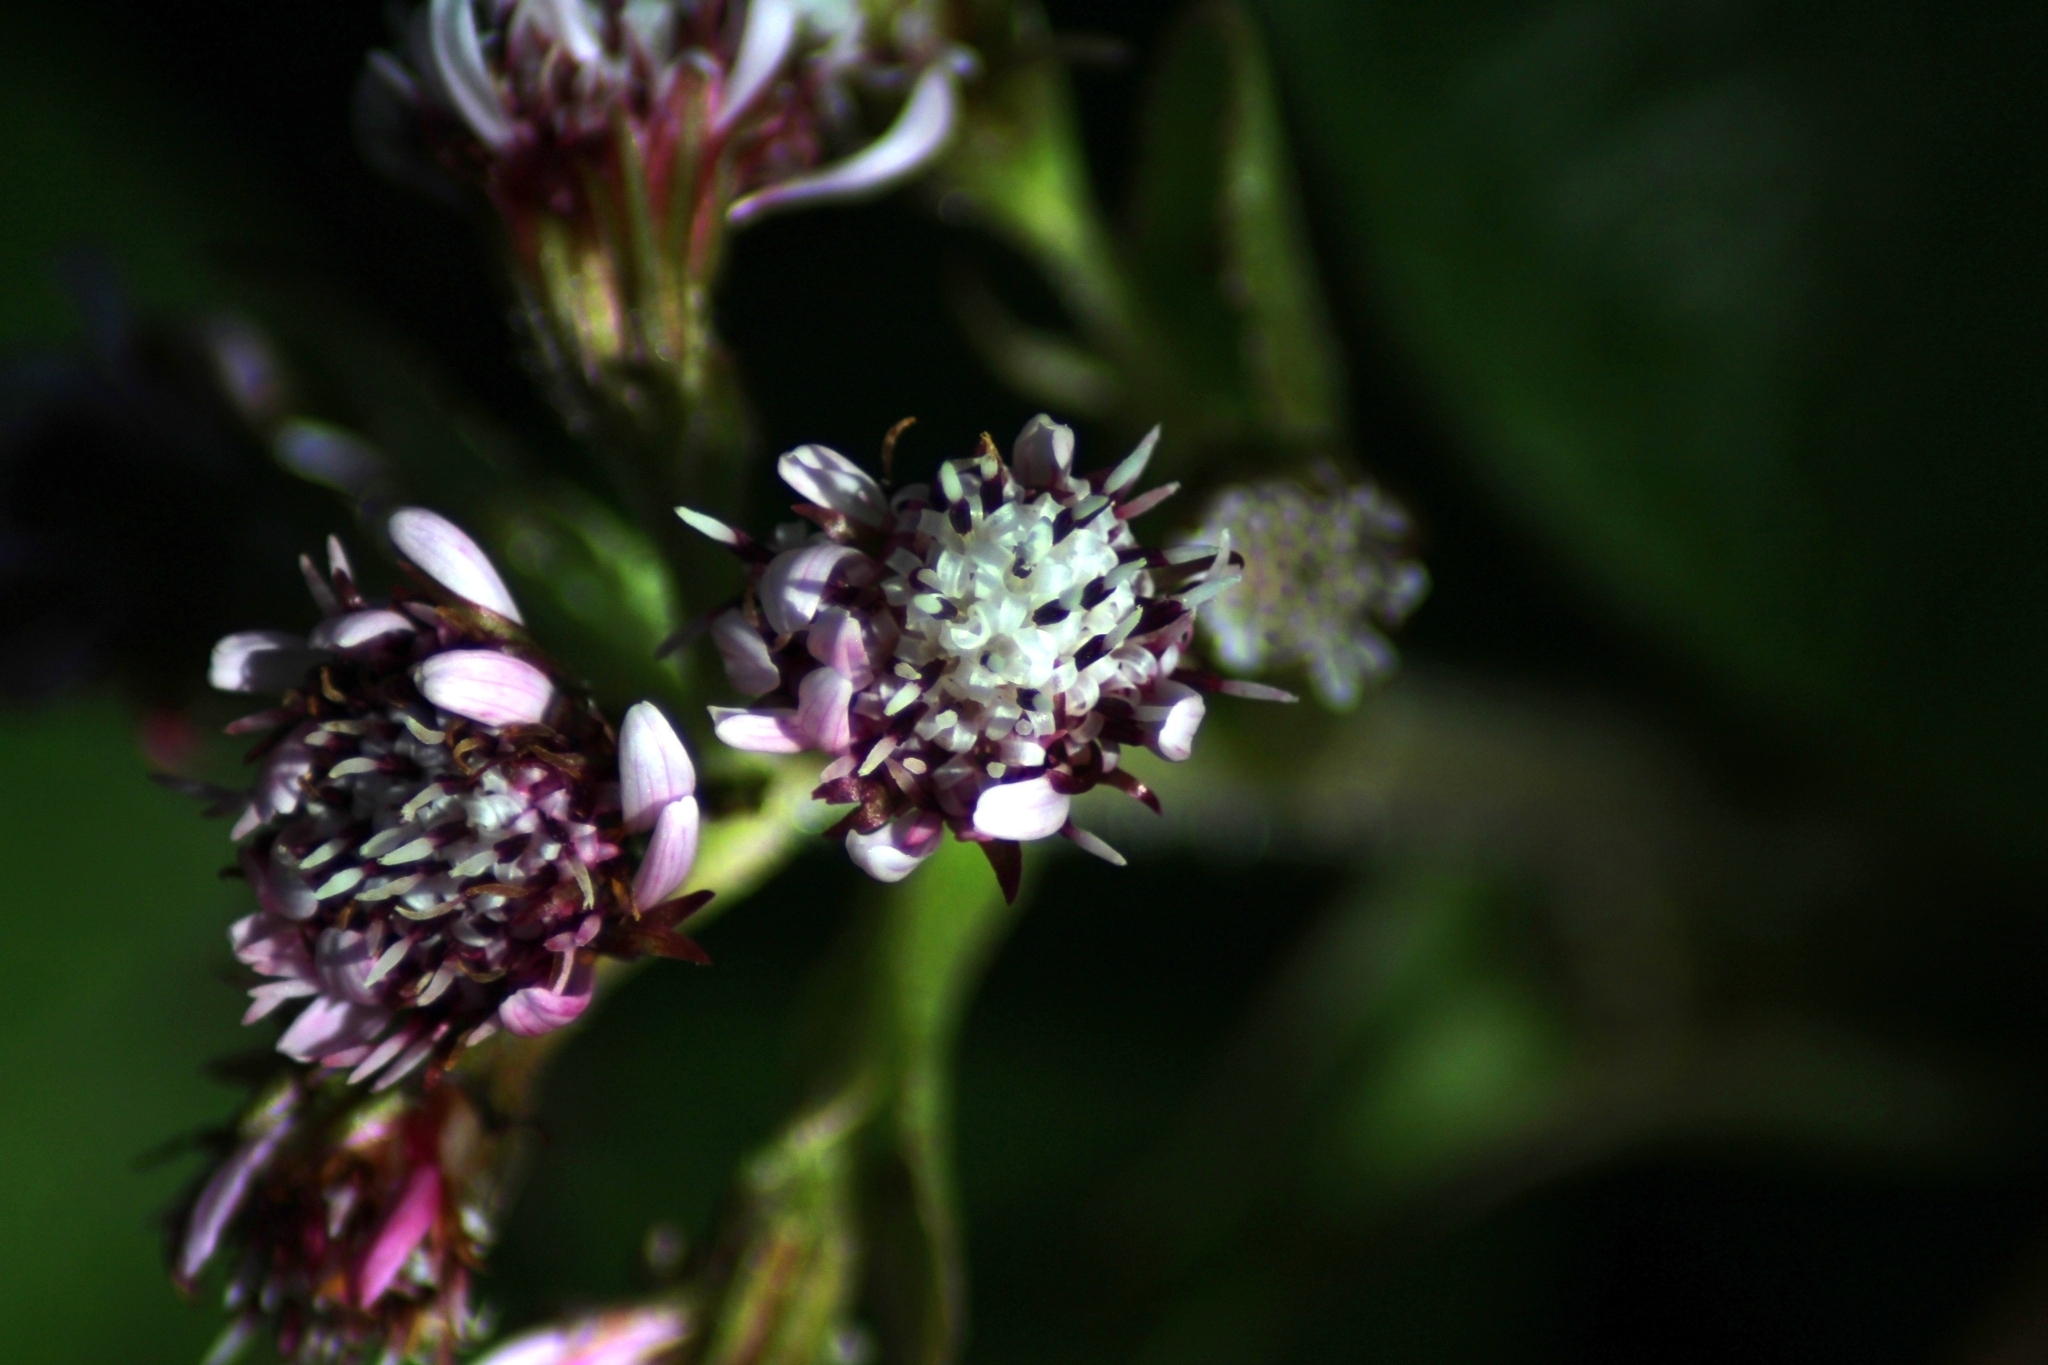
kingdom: Plantae
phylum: Tracheophyta
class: Magnoliopsida
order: Asterales
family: Asteraceae
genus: Petasites
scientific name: Petasites pyrenaicus
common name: Winter heliotrope
